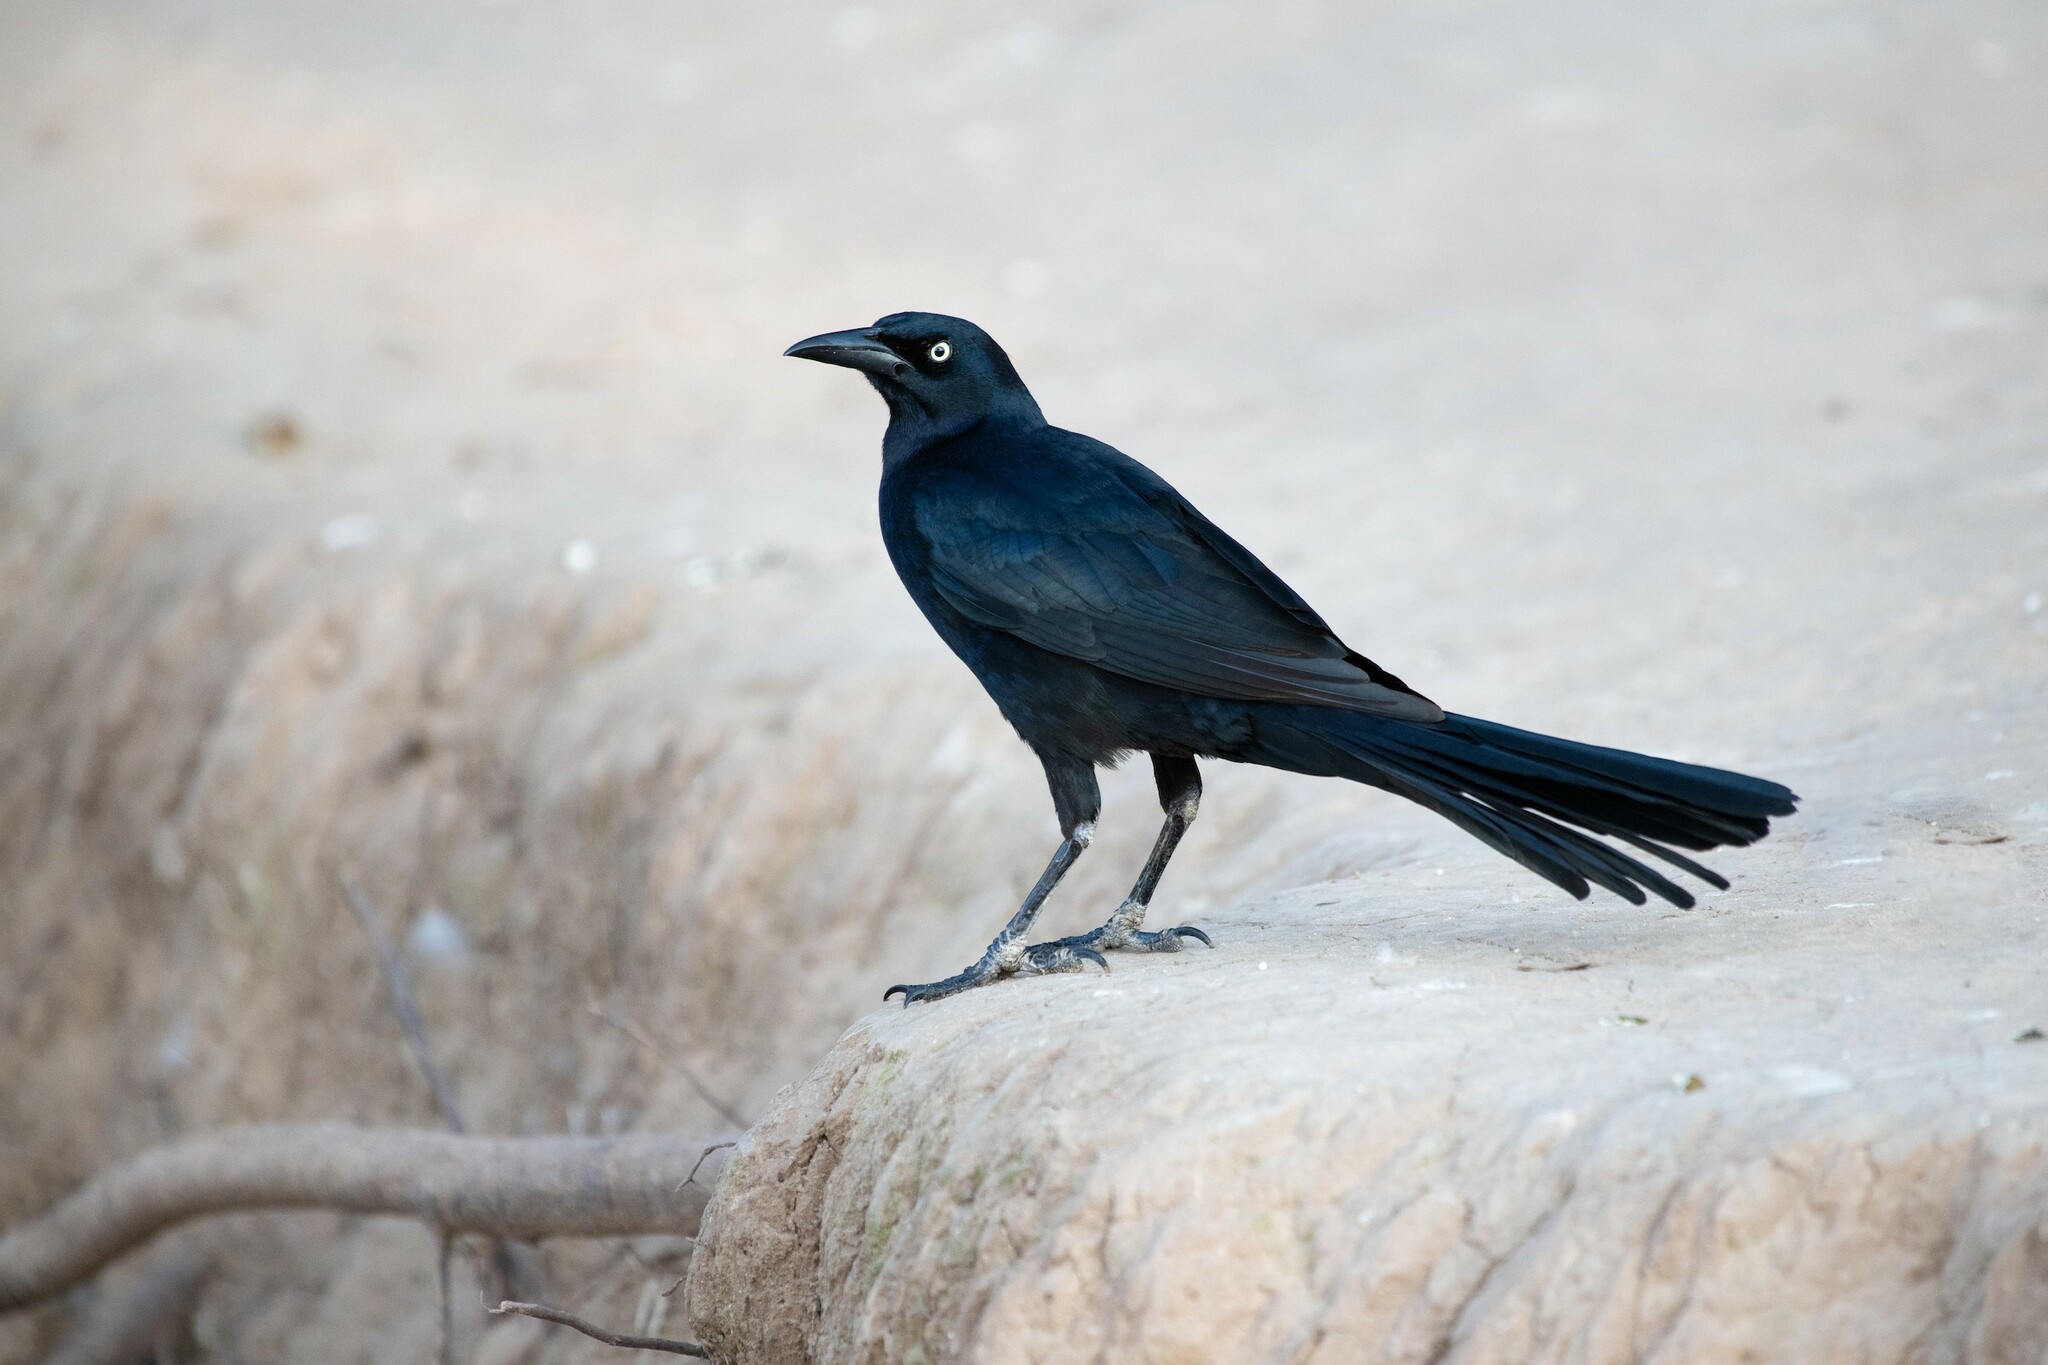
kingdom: Animalia
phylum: Chordata
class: Aves
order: Passeriformes
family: Icteridae
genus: Quiscalus
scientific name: Quiscalus mexicanus
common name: Great-tailed grackle
